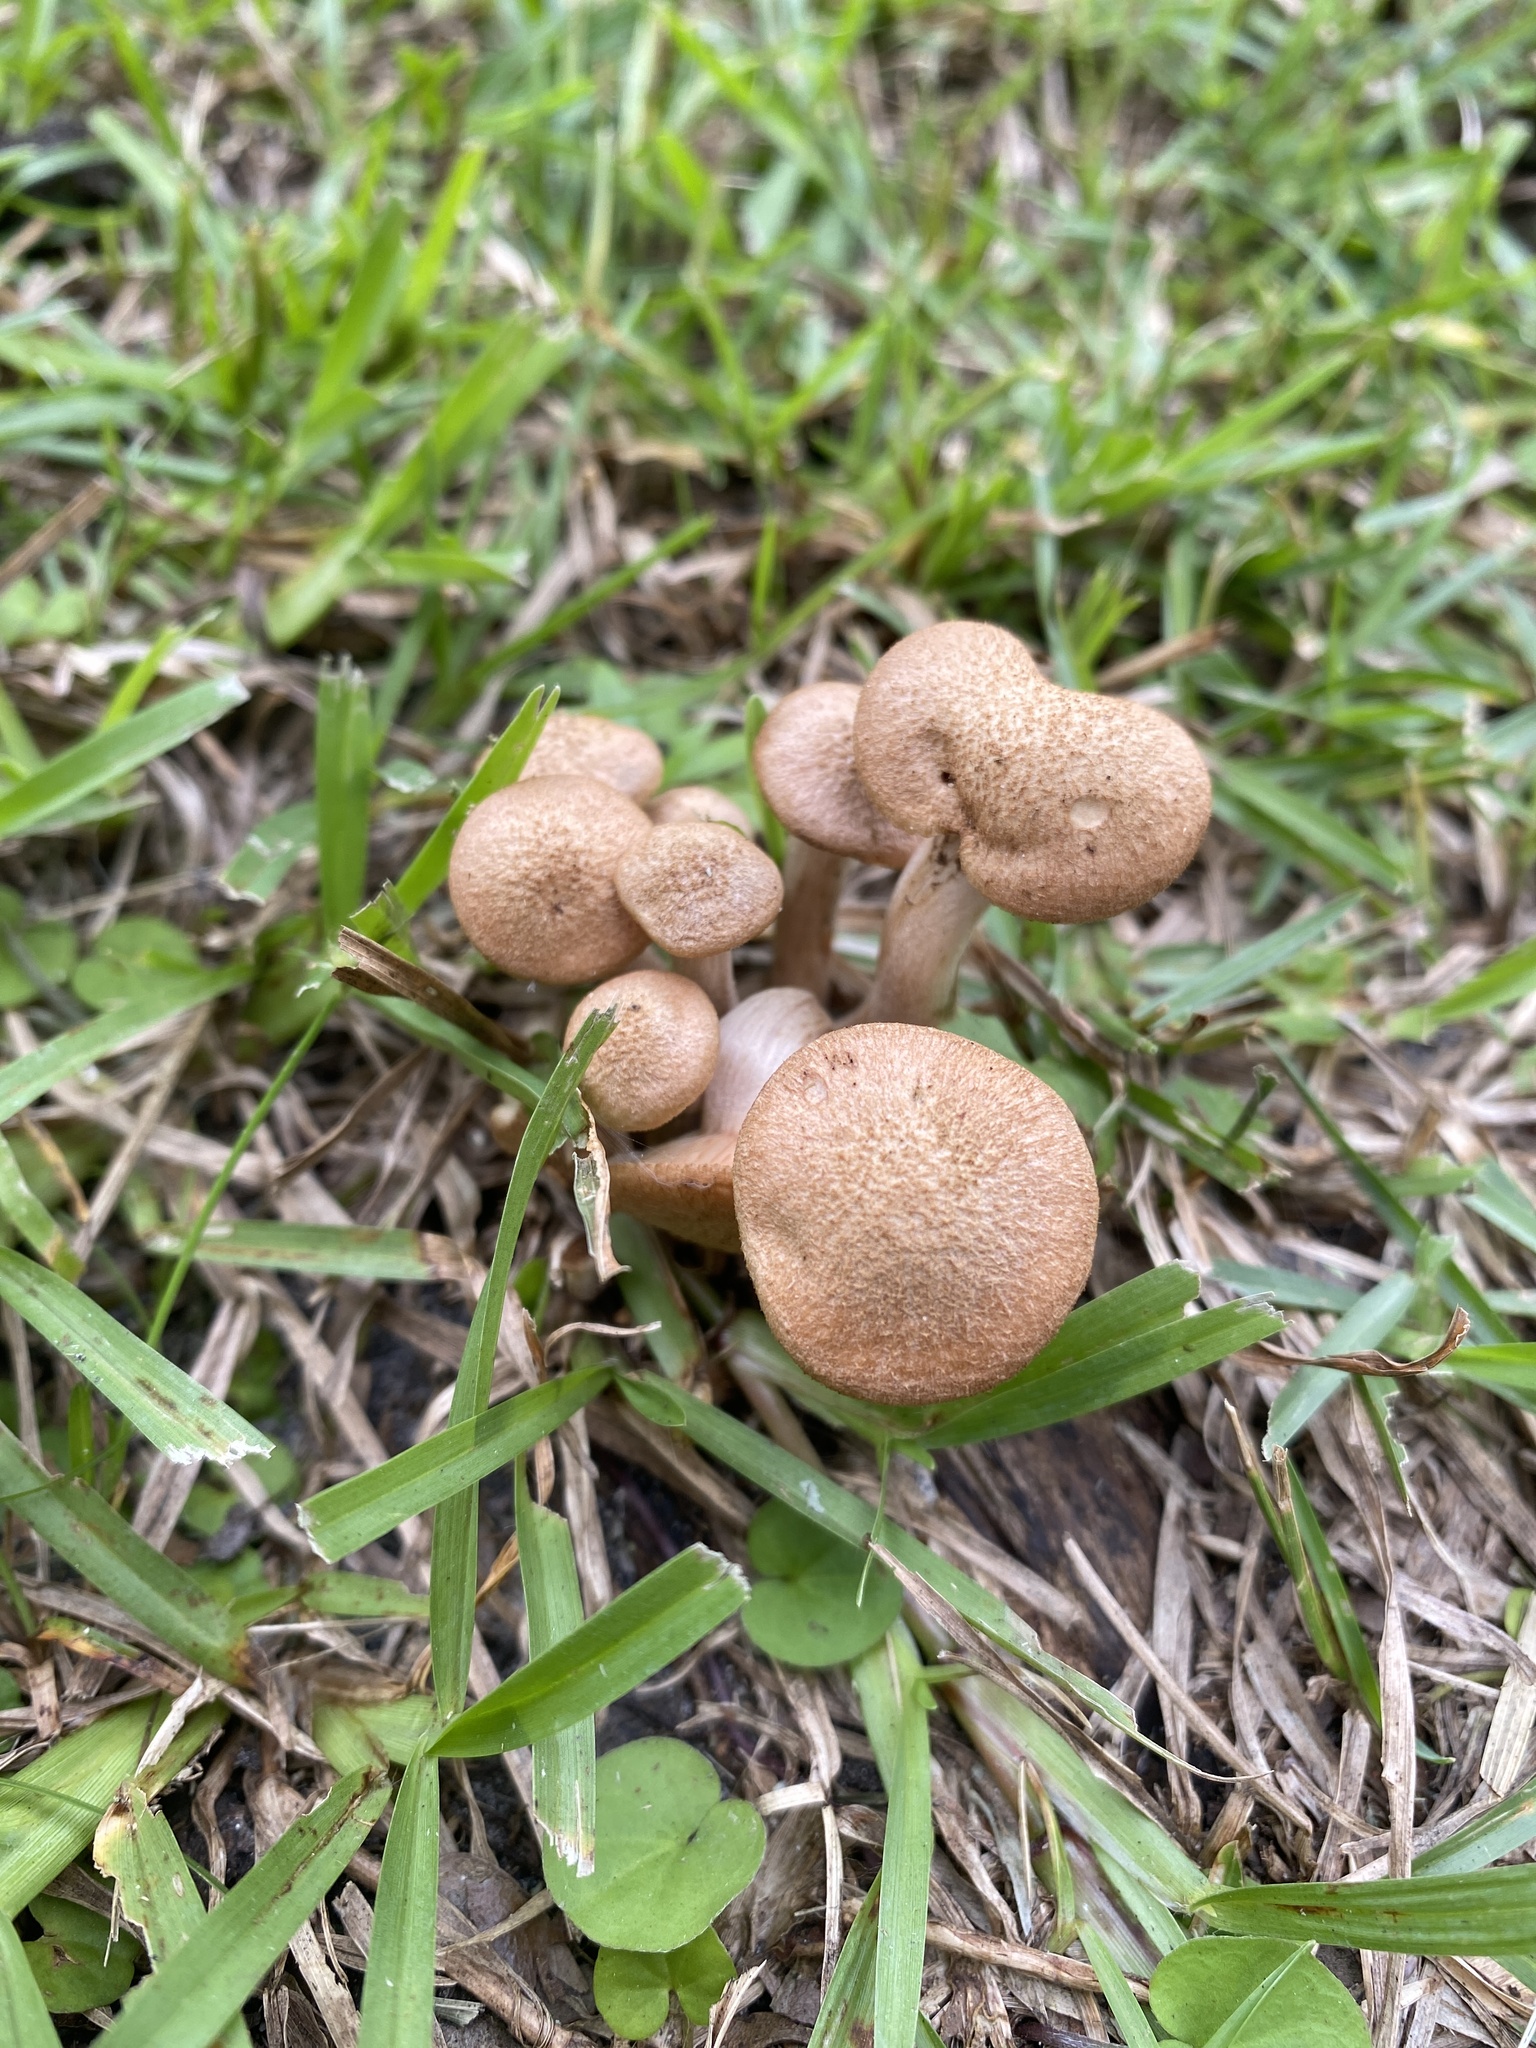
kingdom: Fungi
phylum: Basidiomycota
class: Agaricomycetes
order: Agaricales
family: Physalacriaceae
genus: Desarmillaria
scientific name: Desarmillaria caespitosa
